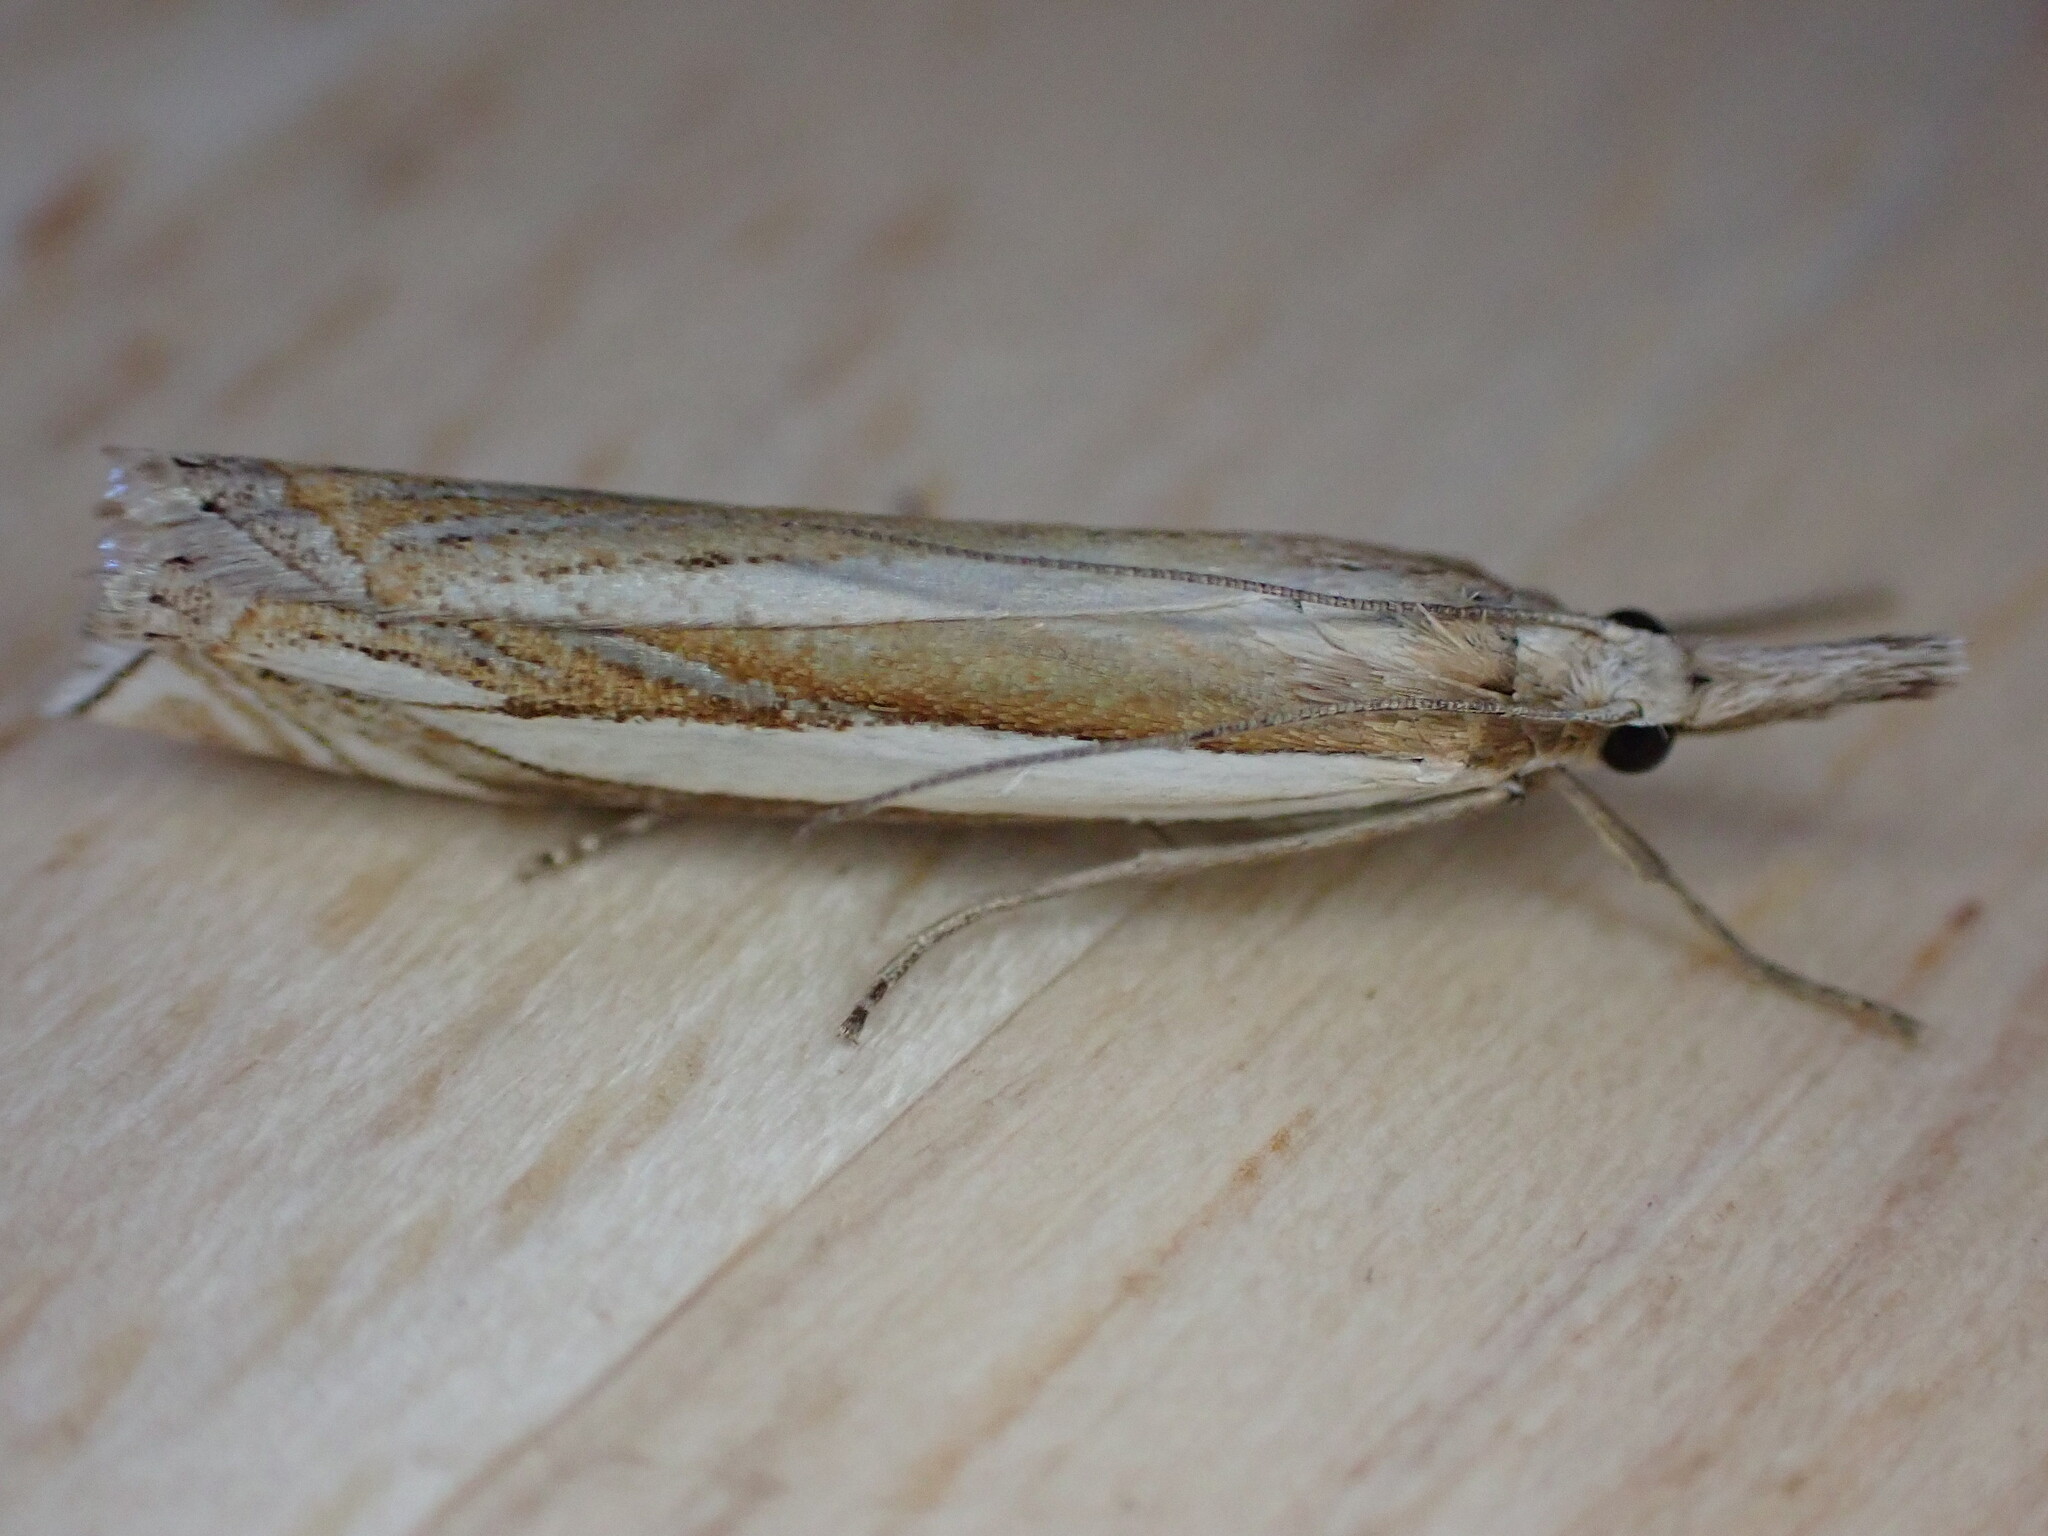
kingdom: Animalia
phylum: Arthropoda
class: Insecta
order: Lepidoptera
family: Crambidae
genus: Crambus
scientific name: Crambus pascuella
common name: Inlaid grass-veneer
